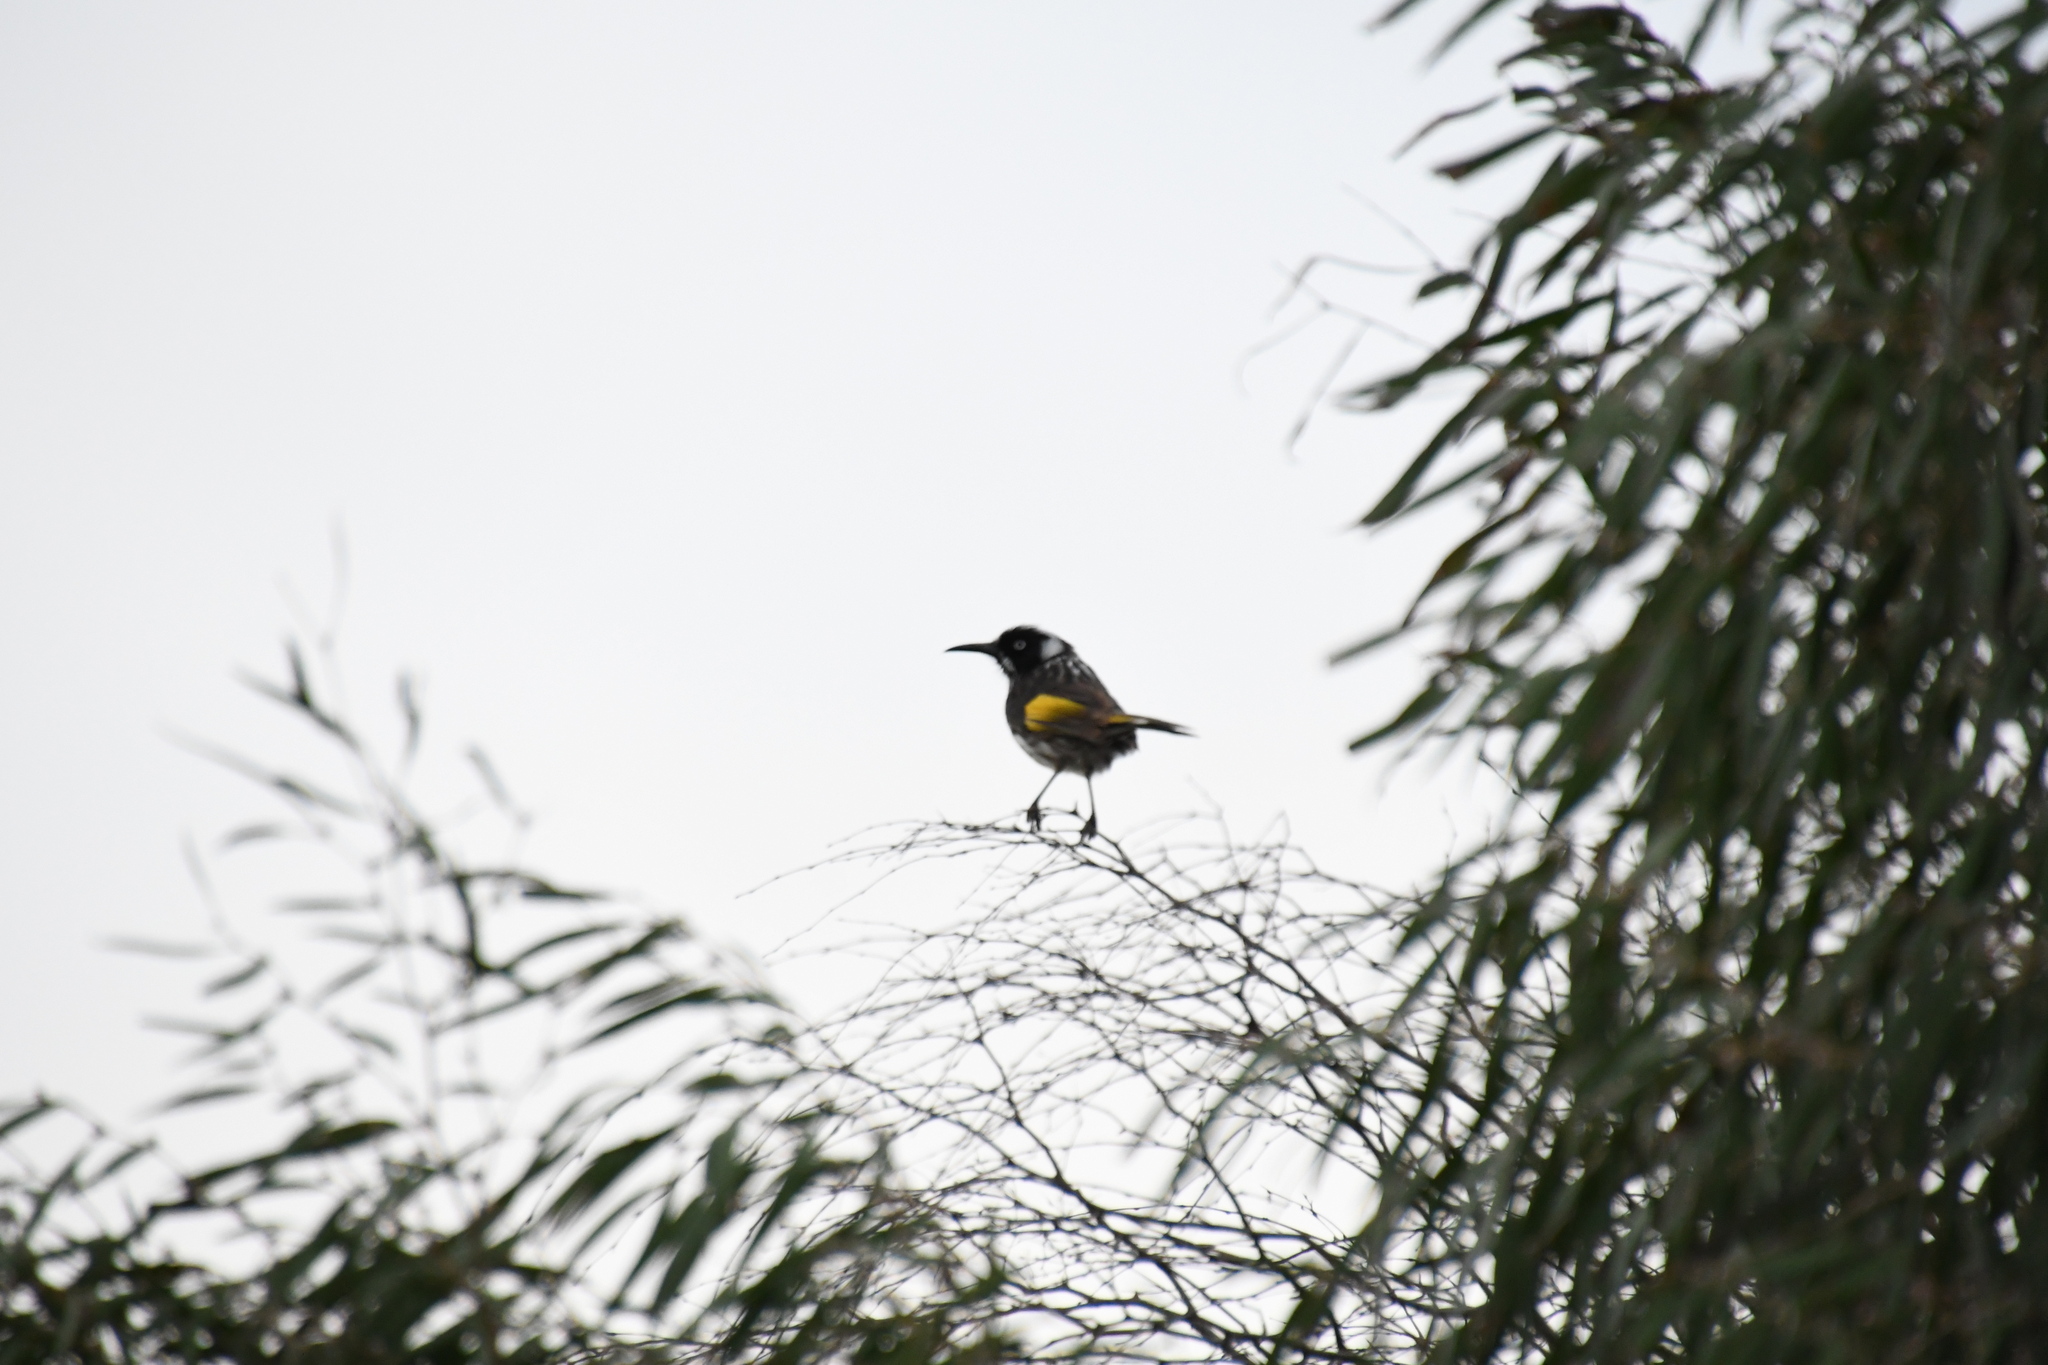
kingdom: Animalia
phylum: Chordata
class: Aves
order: Passeriformes
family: Meliphagidae
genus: Phylidonyris
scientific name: Phylidonyris novaehollandiae
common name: New holland honeyeater
